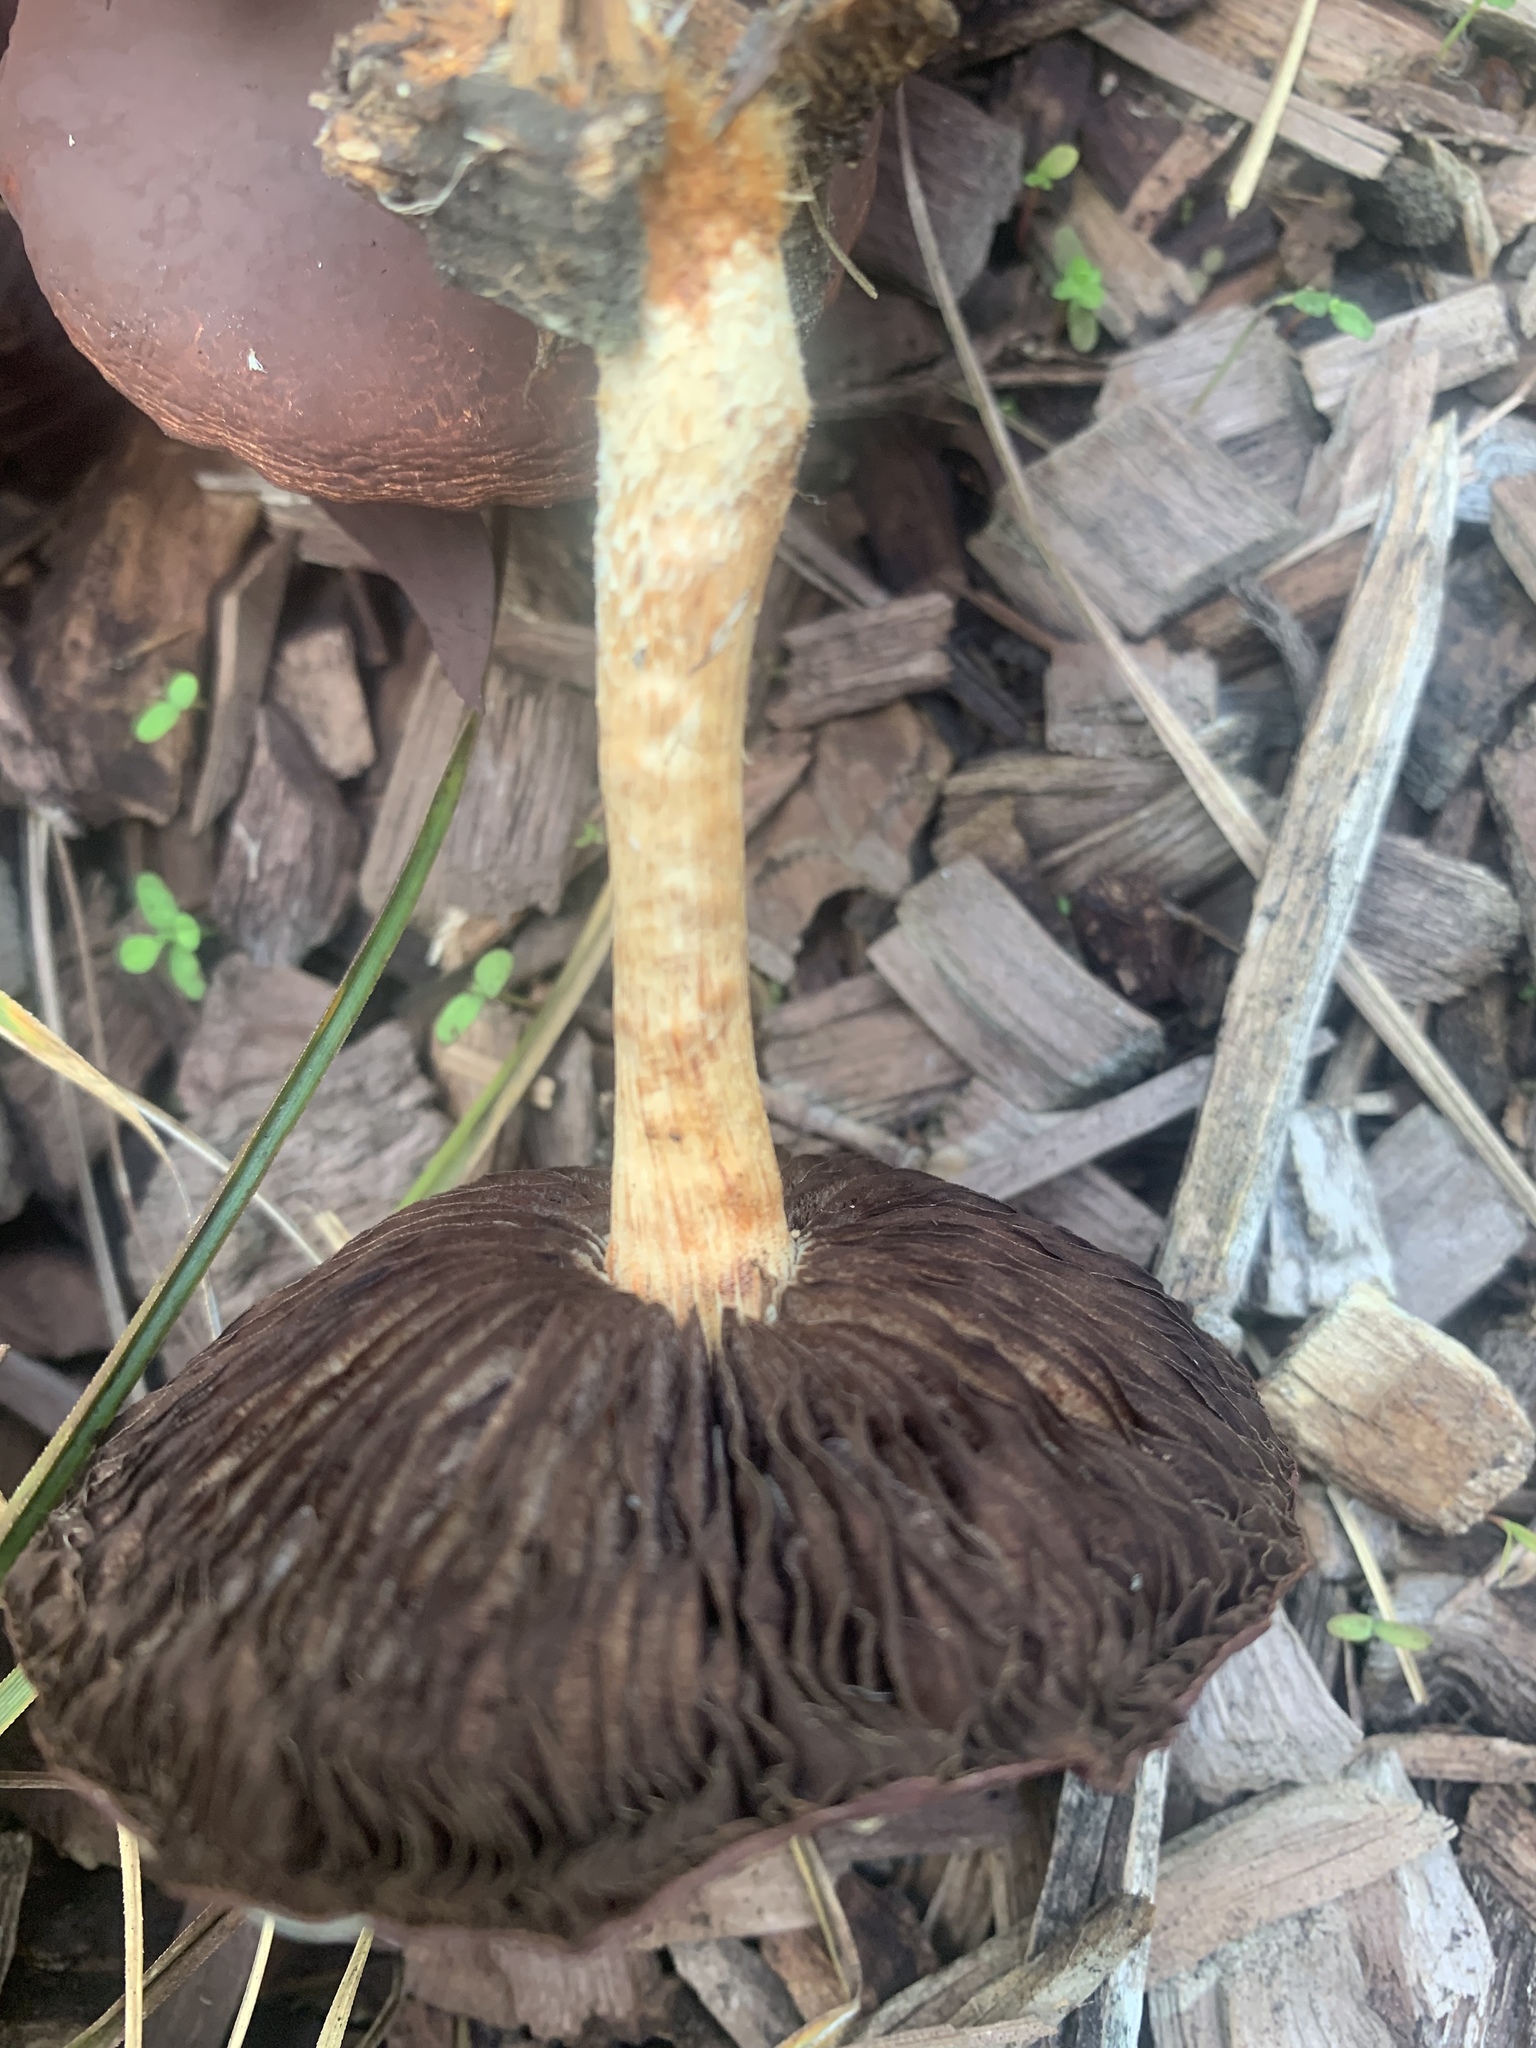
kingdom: Fungi
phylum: Basidiomycota
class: Agaricomycetes
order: Agaricales
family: Strophariaceae
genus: Leratiomyces
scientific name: Leratiomyces ceres
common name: Redlead roundhead
